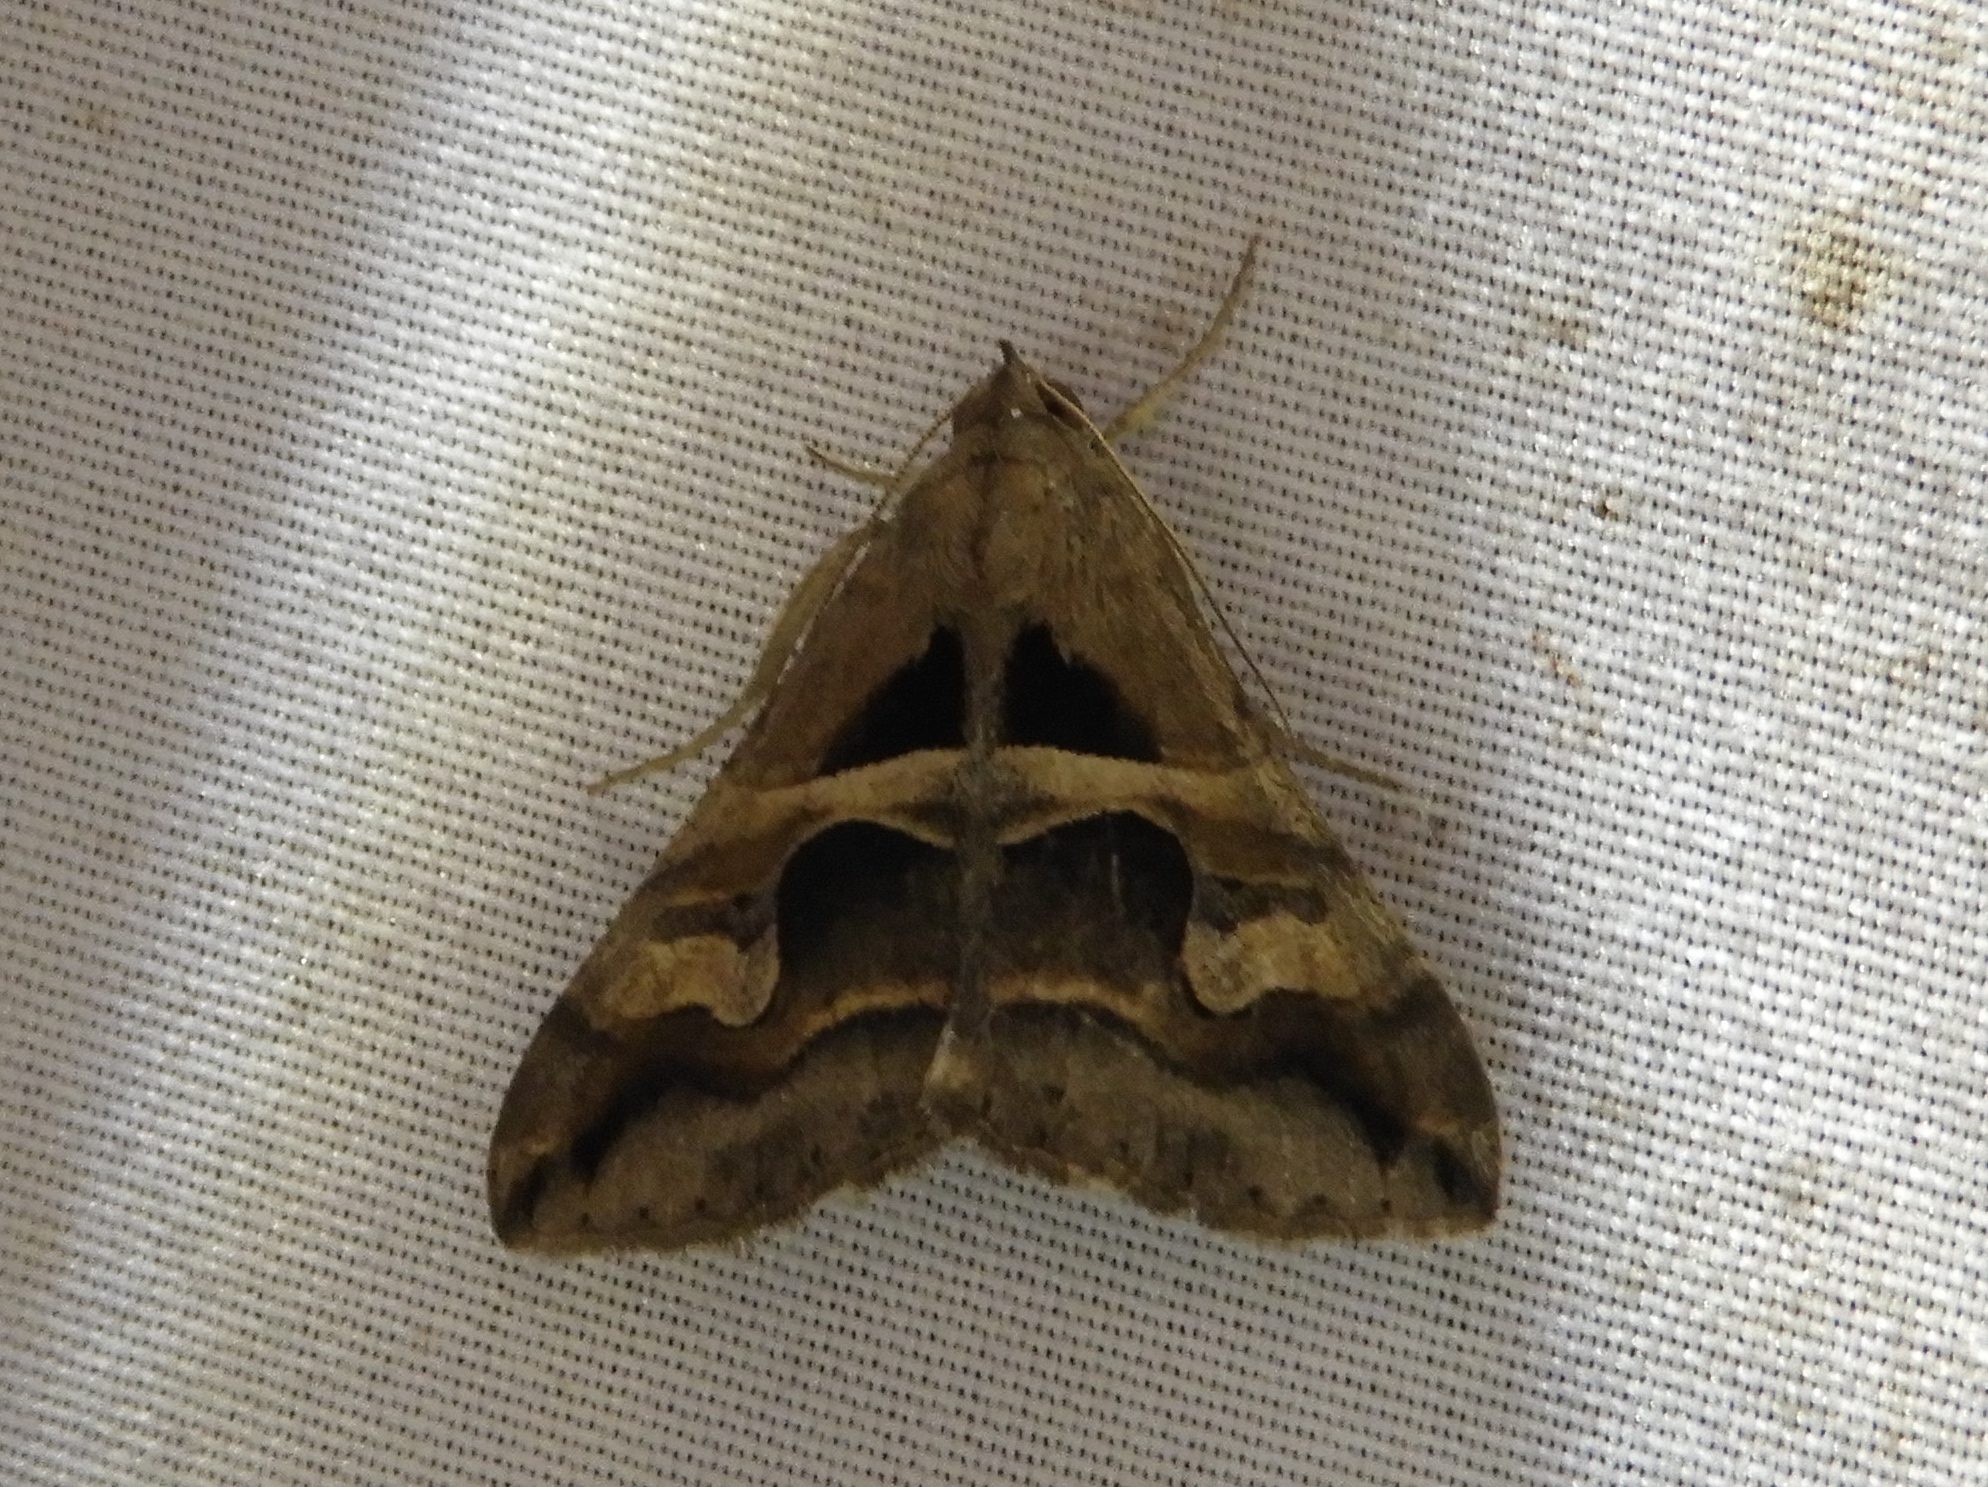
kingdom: Animalia
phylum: Arthropoda
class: Insecta
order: Lepidoptera
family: Erebidae
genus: Melipotis
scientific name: Melipotis cellaris
